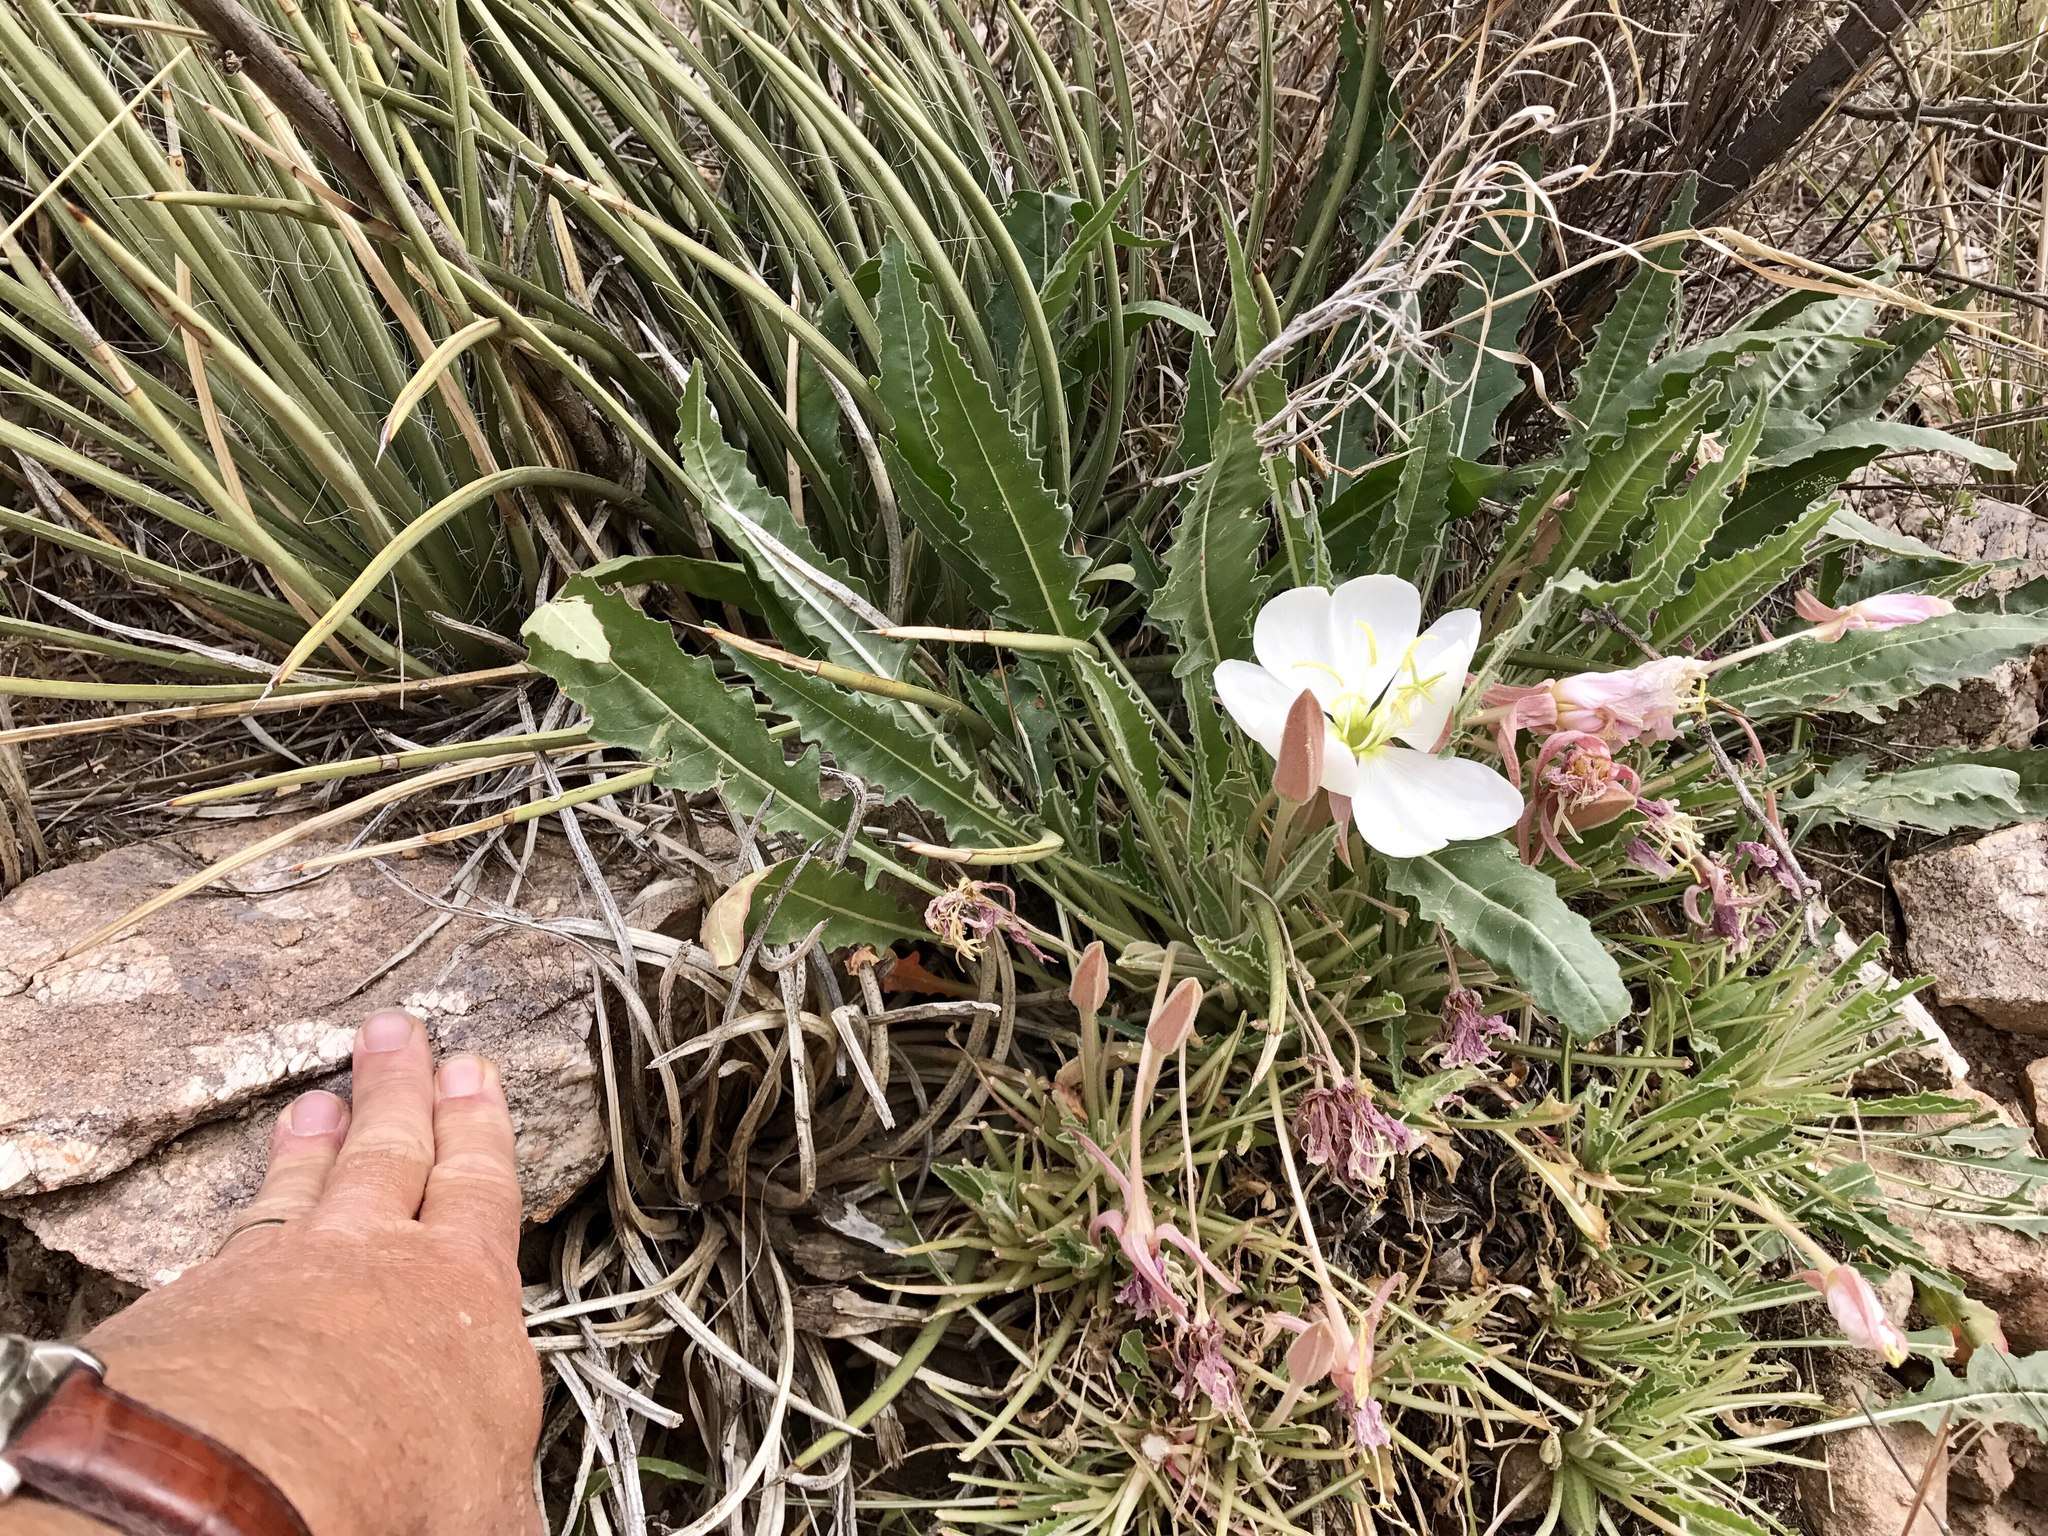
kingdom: Plantae
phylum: Tracheophyta
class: Magnoliopsida
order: Myrtales
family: Onagraceae
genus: Oenothera
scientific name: Oenothera cespitosa
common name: Tufted evening-primrose
